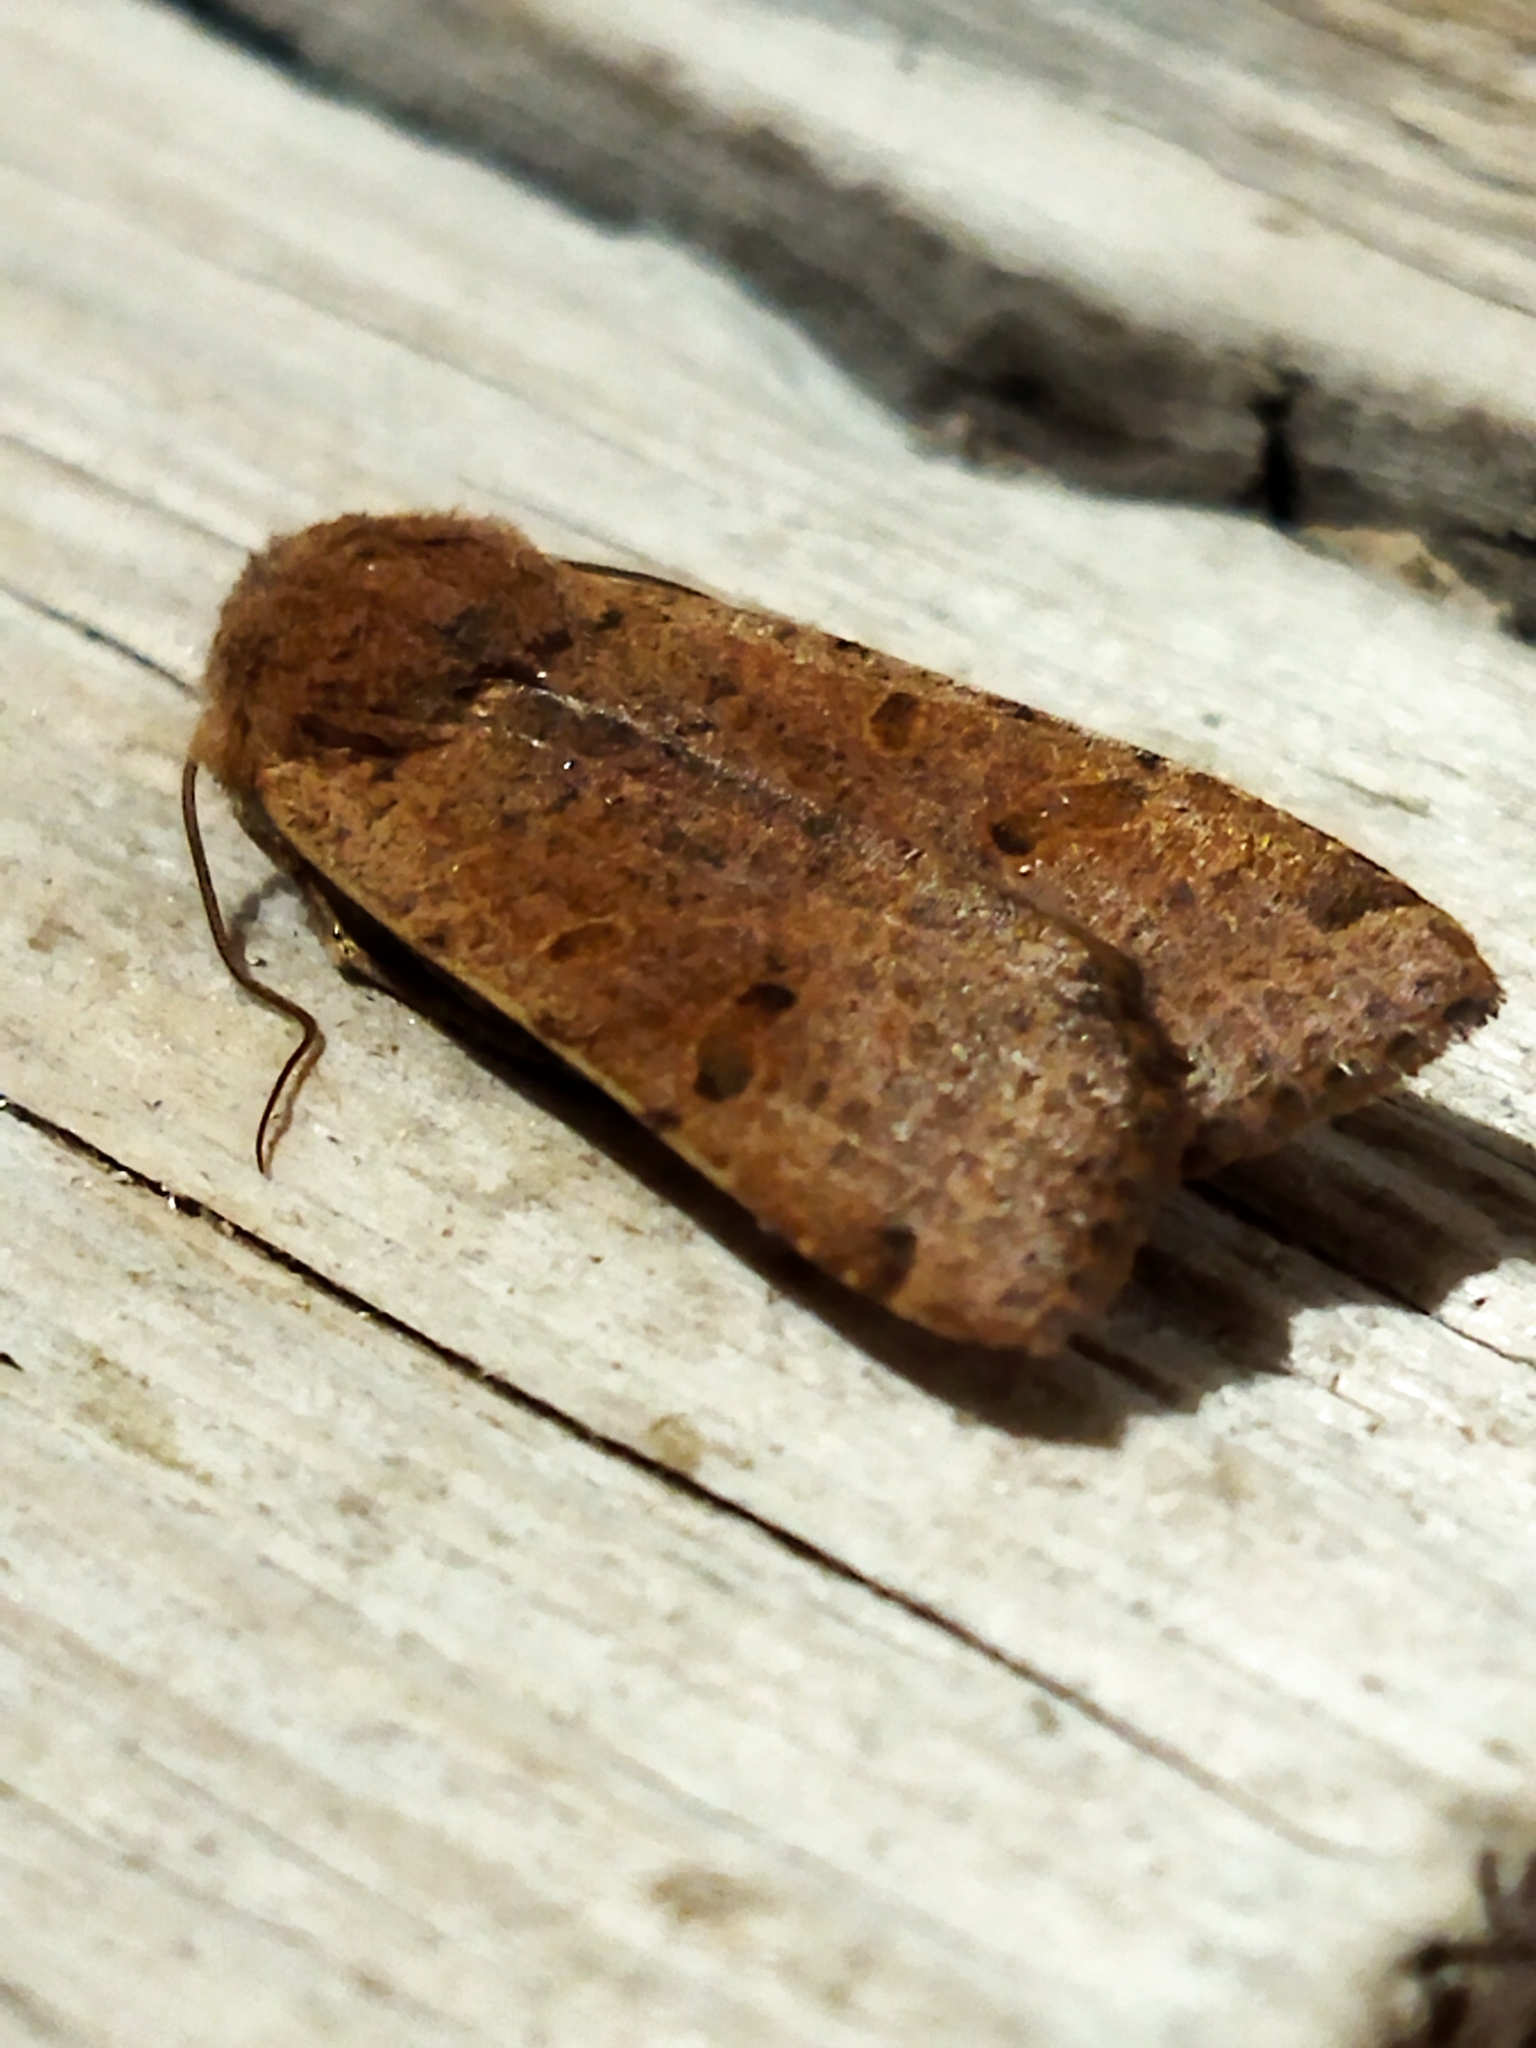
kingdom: Animalia
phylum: Arthropoda
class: Insecta
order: Lepidoptera
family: Noctuidae
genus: Agrochola
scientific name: Agrochola lychnidis
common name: Beaded chestnut
